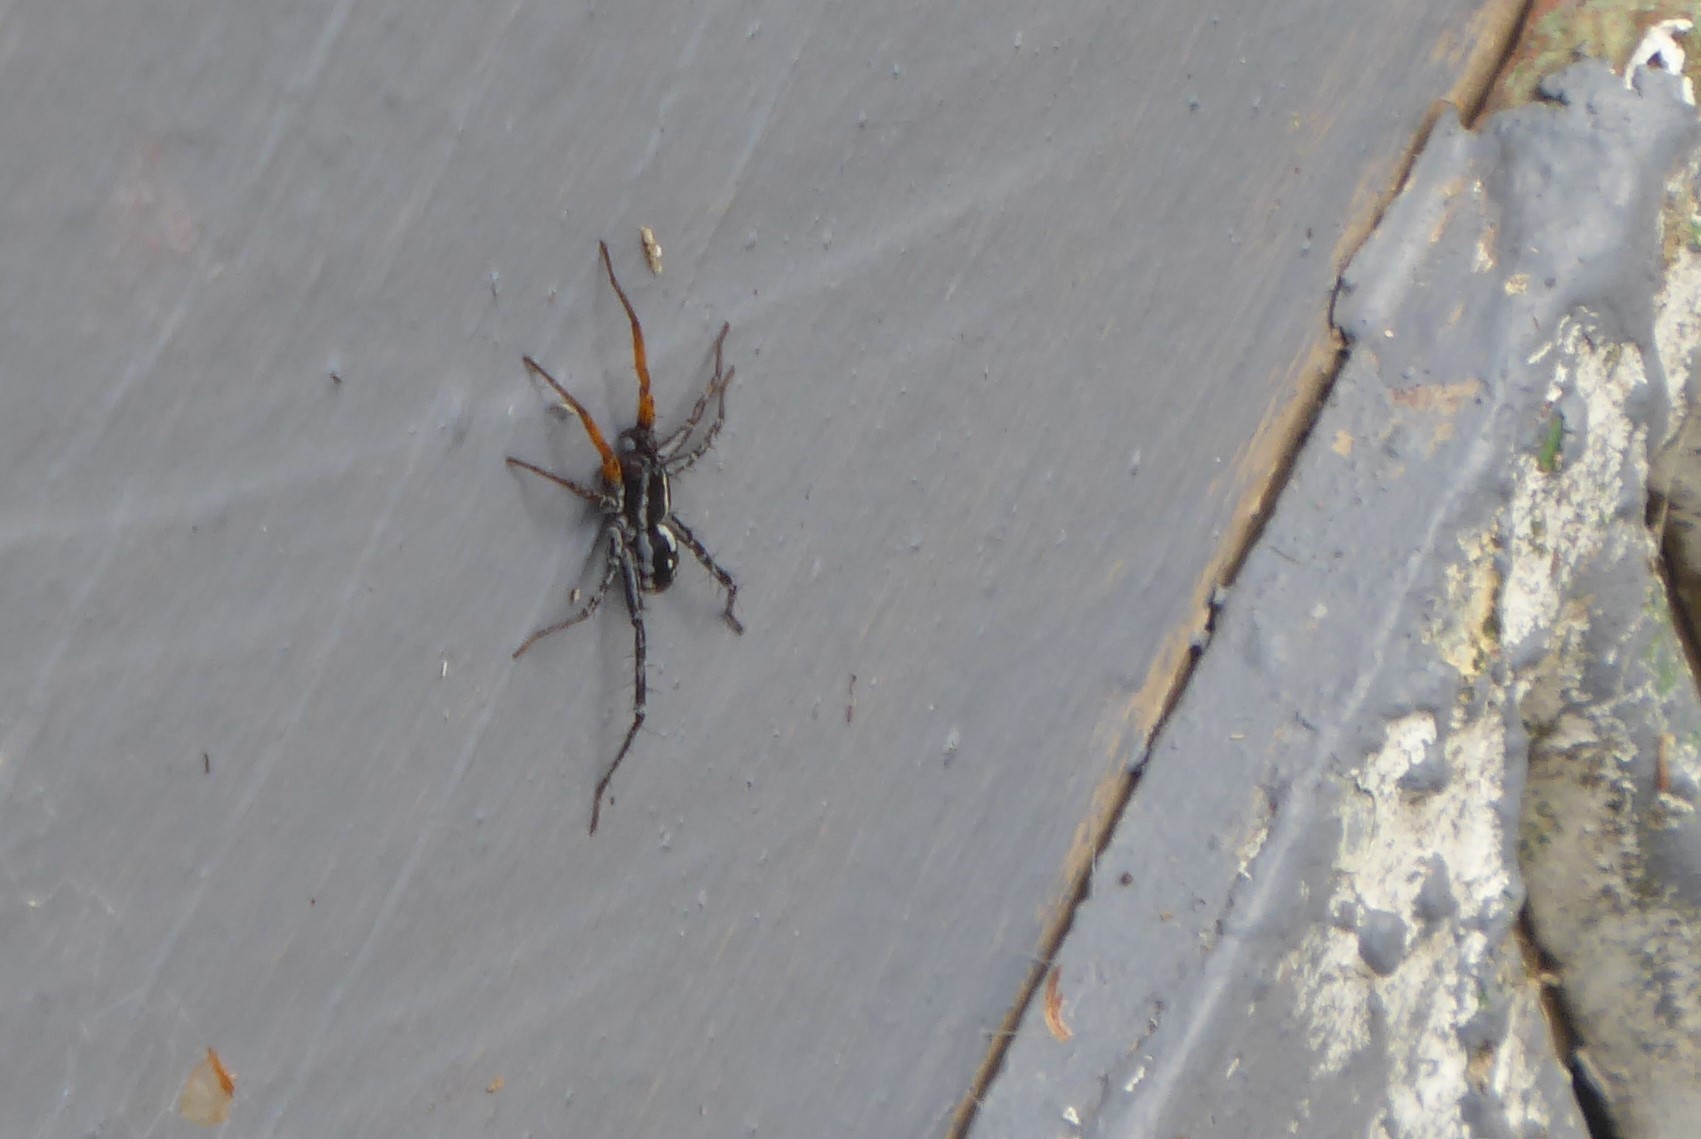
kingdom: Animalia
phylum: Arthropoda
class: Arachnida
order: Araneae
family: Corinnidae
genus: Nyssus
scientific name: Nyssus coloripes
